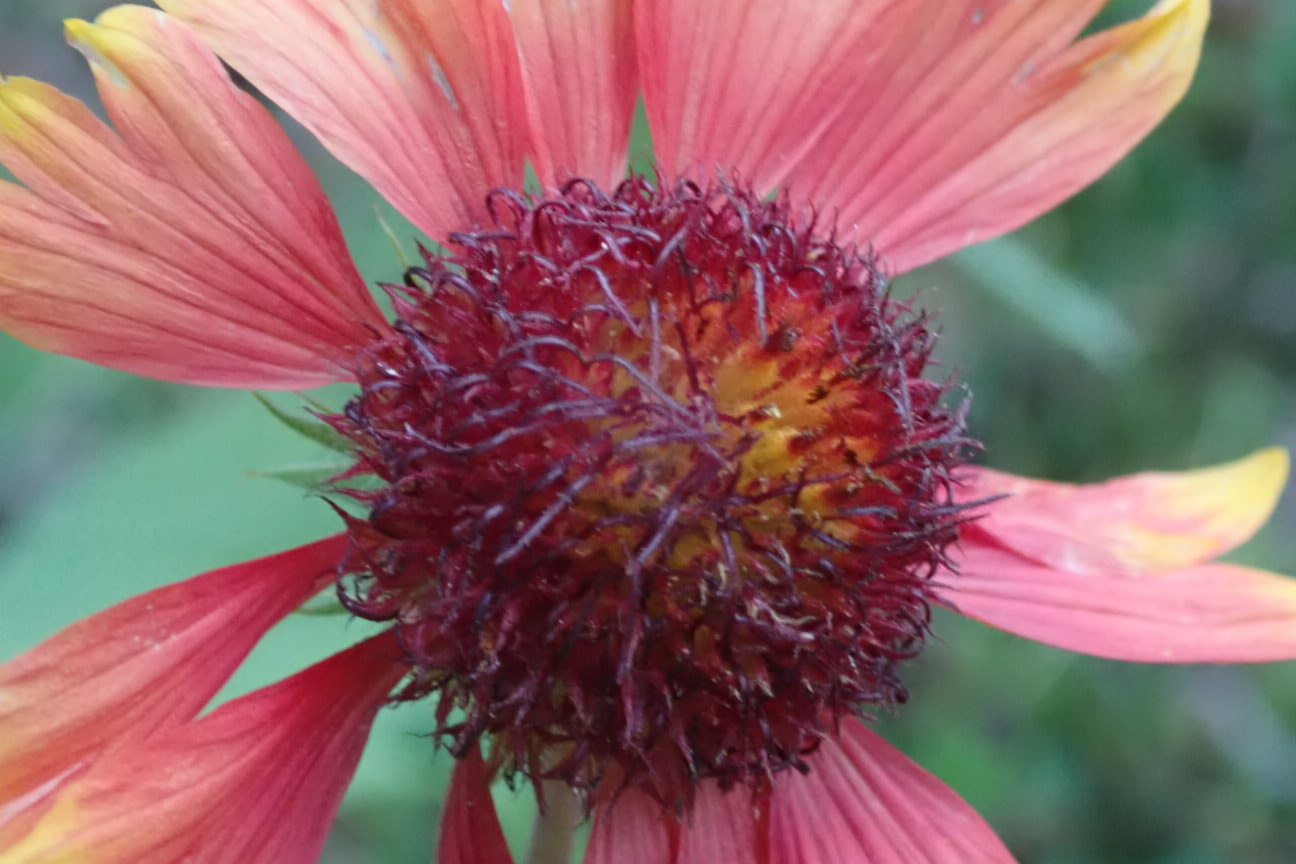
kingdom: Plantae
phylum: Tracheophyta
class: Magnoliopsida
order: Asterales
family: Asteraceae
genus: Gaillardia
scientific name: Gaillardia pulchella
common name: Firewheel
